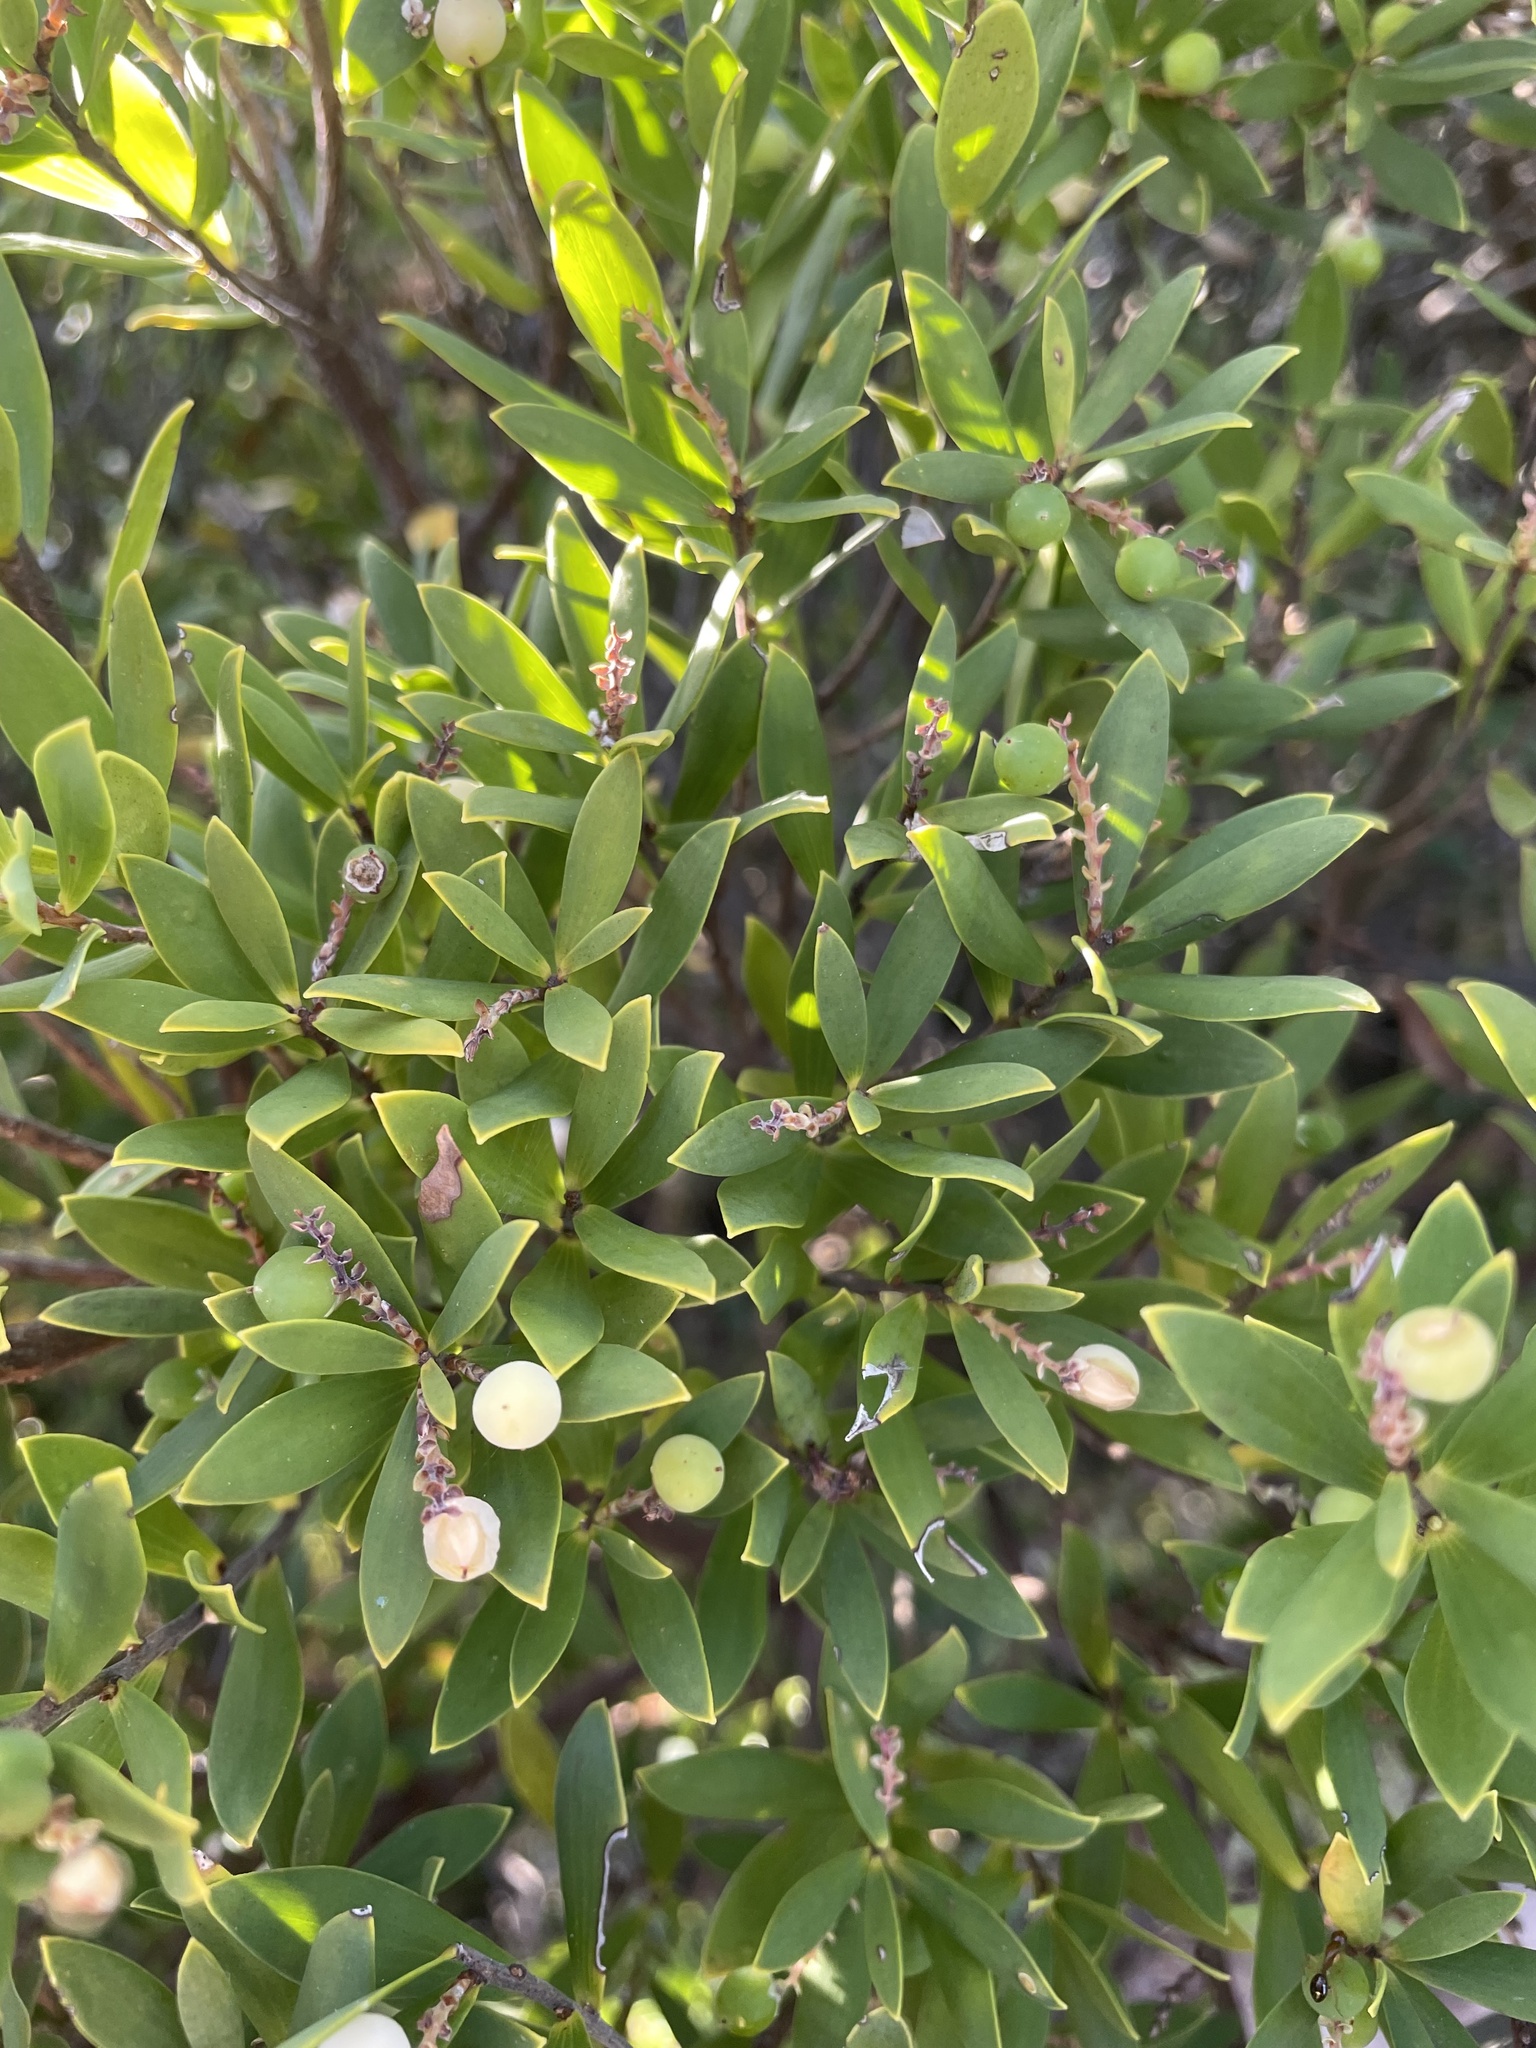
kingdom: Plantae
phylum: Tracheophyta
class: Magnoliopsida
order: Ericales
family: Ericaceae
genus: Leptecophylla
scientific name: Leptecophylla parvifolia
